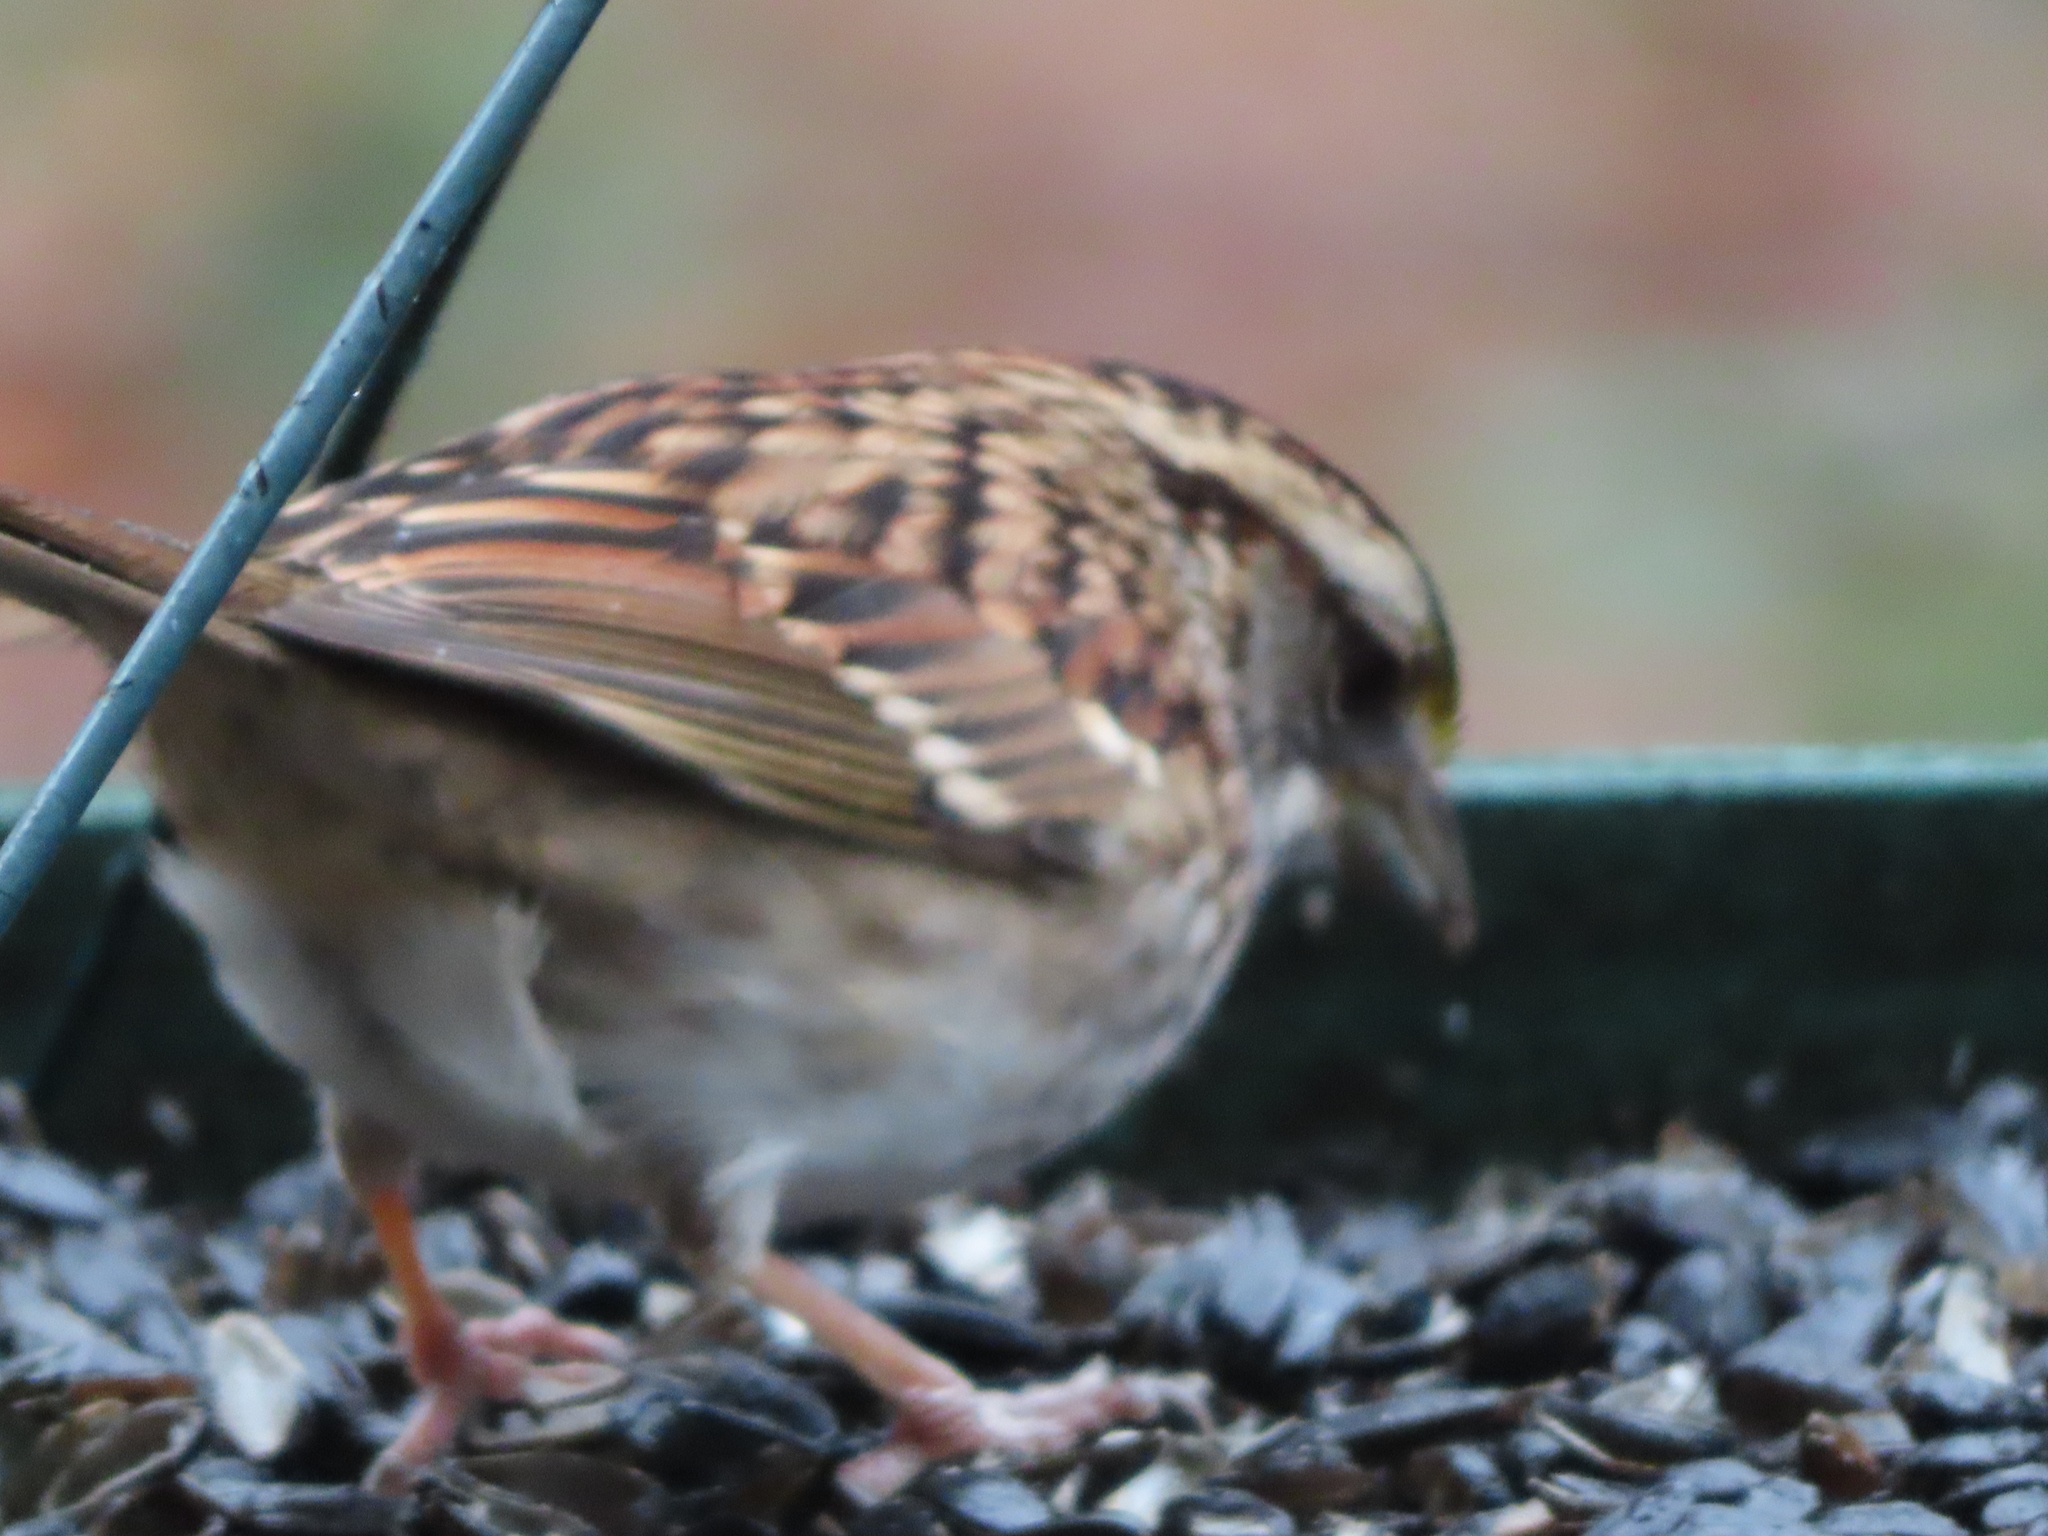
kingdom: Animalia
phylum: Chordata
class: Aves
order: Passeriformes
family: Passerellidae
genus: Zonotrichia
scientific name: Zonotrichia albicollis
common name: White-throated sparrow
